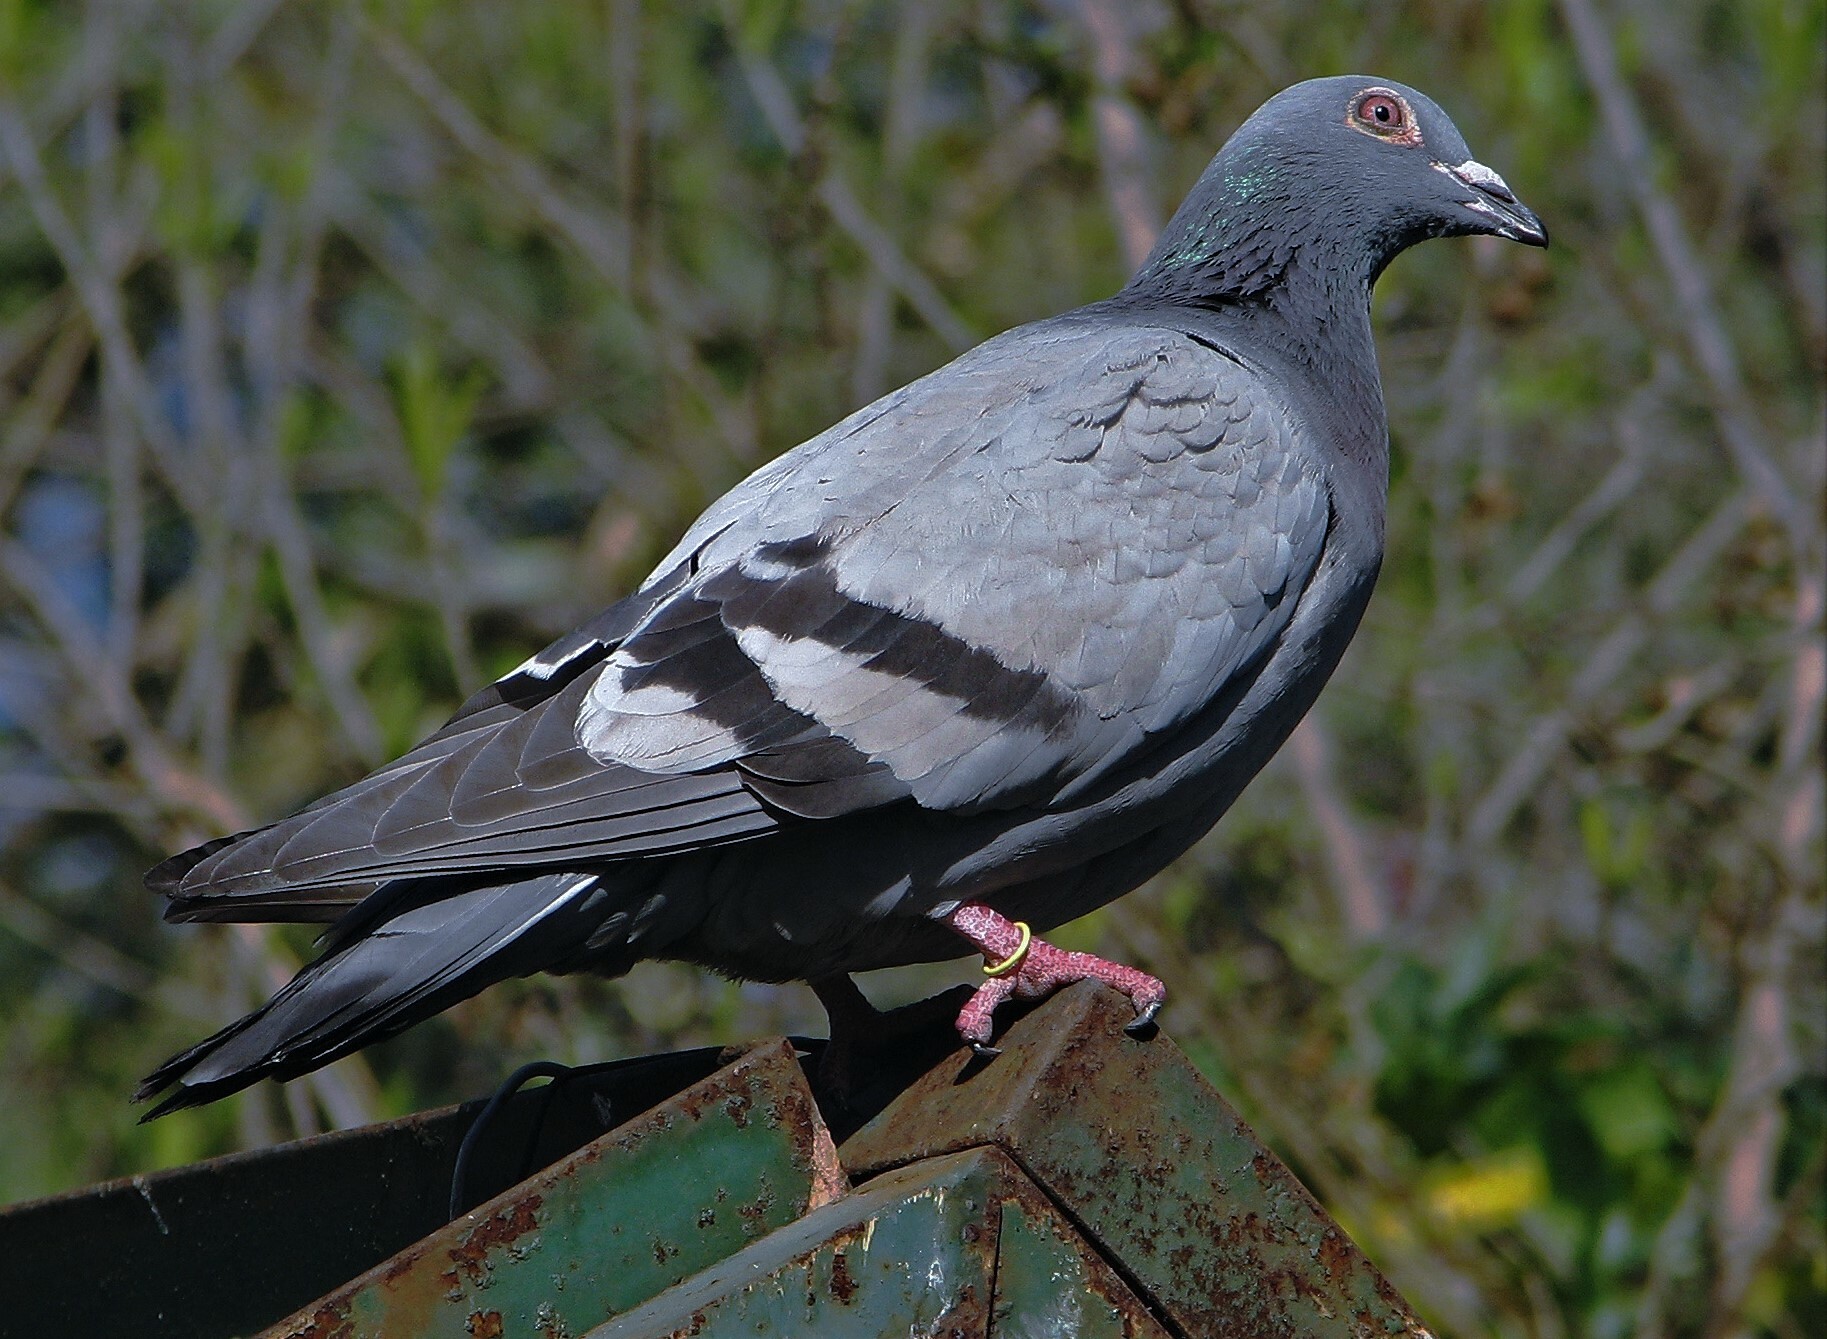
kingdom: Animalia
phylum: Chordata
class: Aves
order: Columbiformes
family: Columbidae
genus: Columba
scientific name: Columba livia
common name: Rock pigeon
